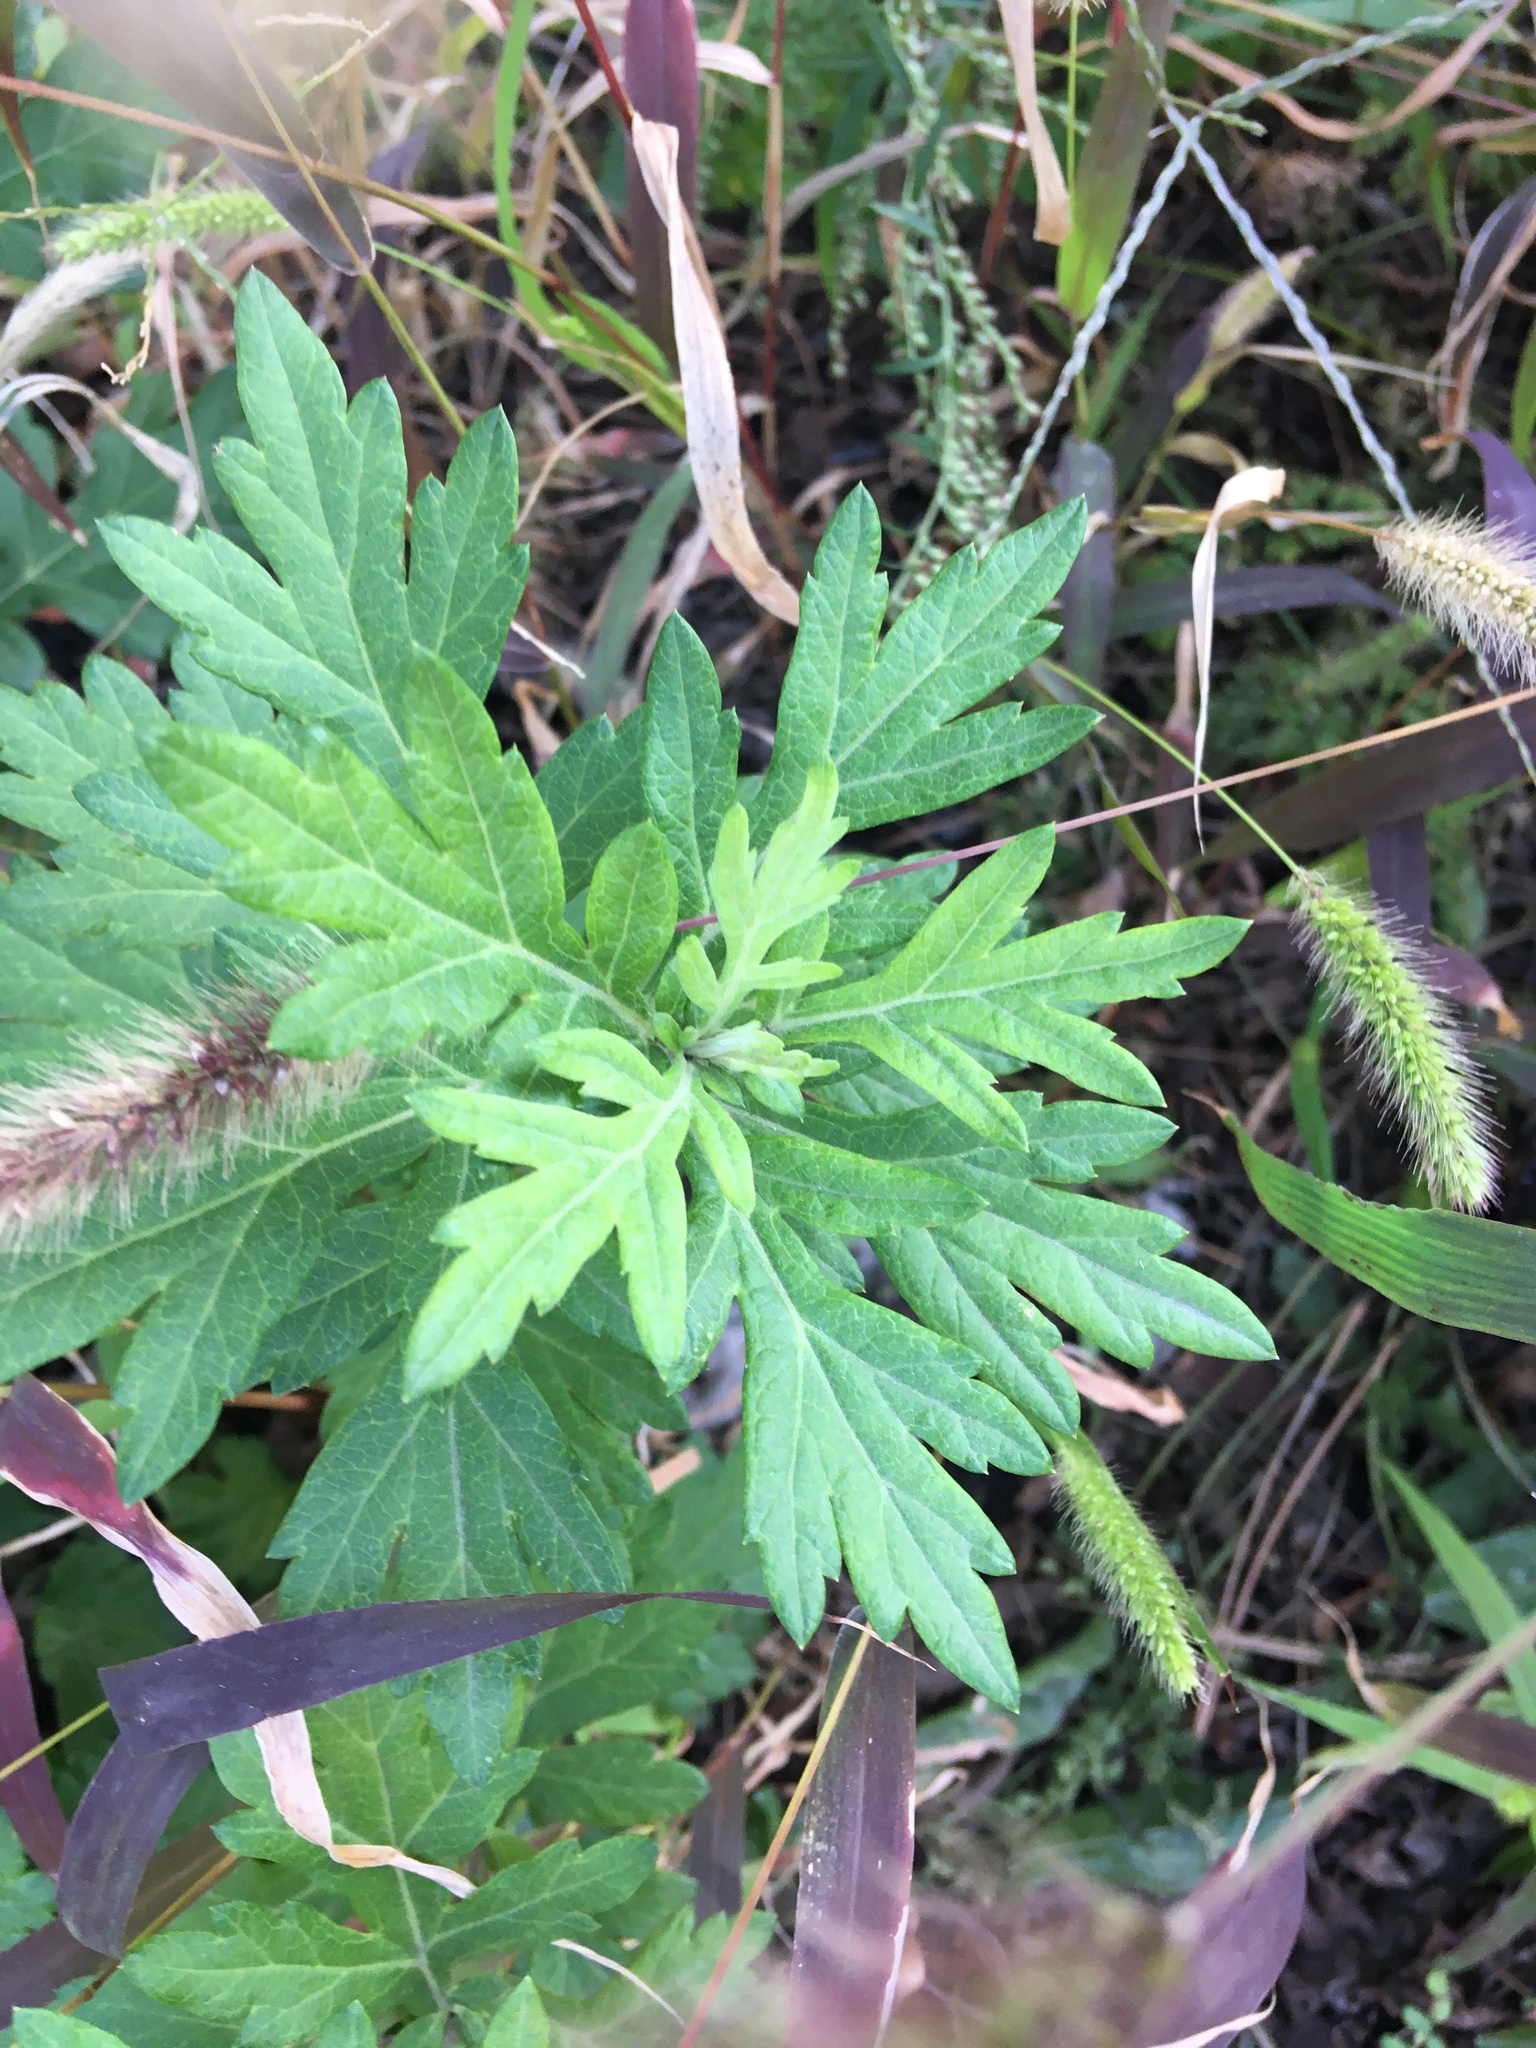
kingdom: Plantae
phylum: Tracheophyta
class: Magnoliopsida
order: Asterales
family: Asteraceae
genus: Artemisia
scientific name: Artemisia vulgaris
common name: Mugwort
